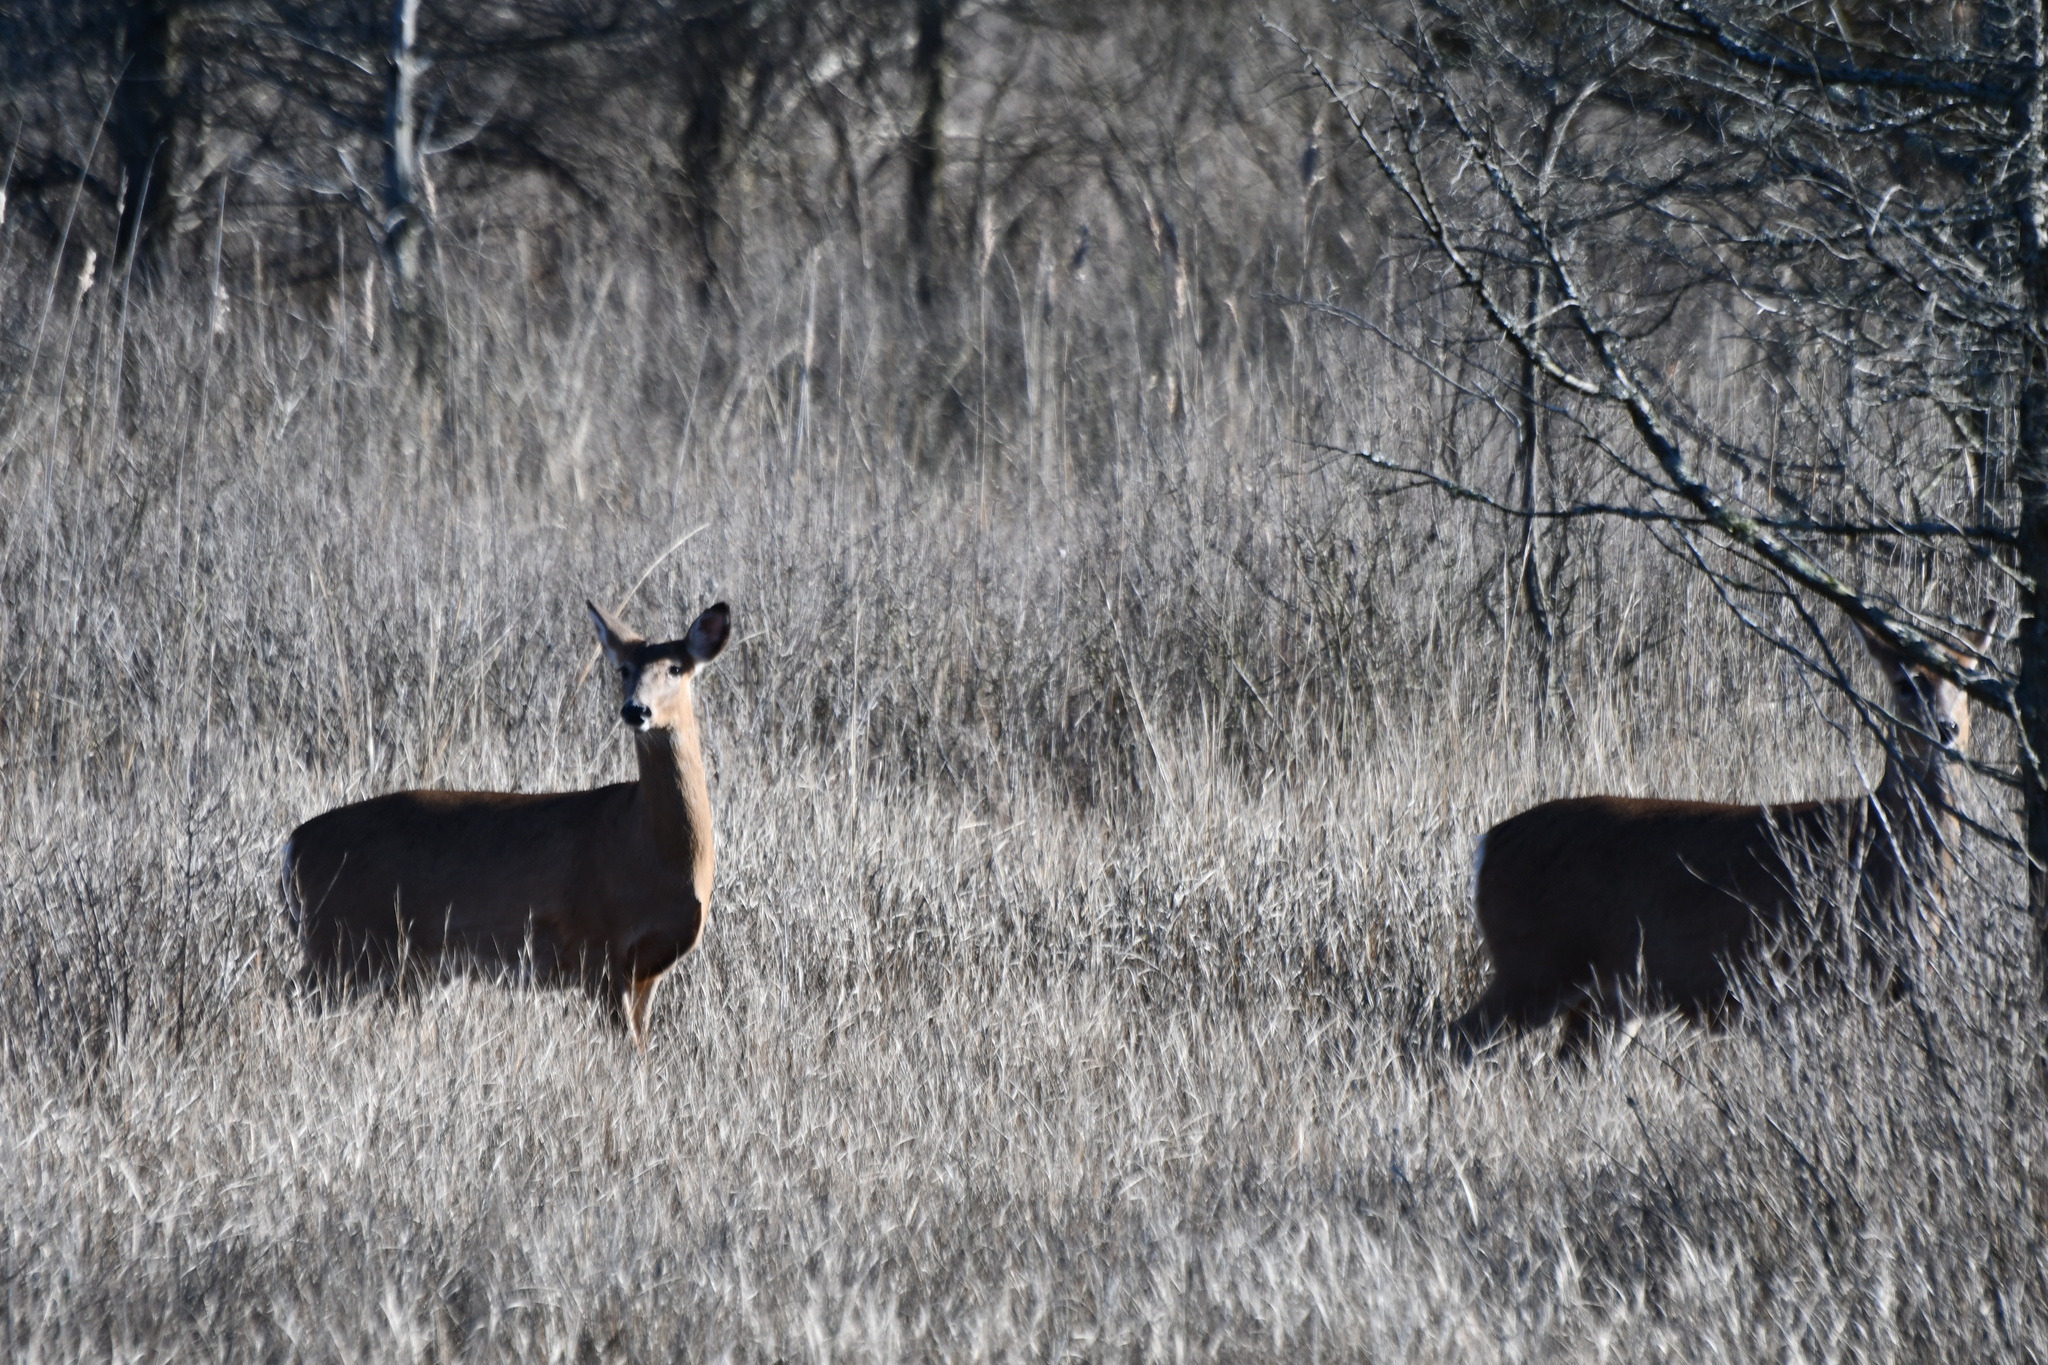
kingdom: Animalia
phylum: Chordata
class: Mammalia
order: Artiodactyla
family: Cervidae
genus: Odocoileus
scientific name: Odocoileus virginianus
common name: White-tailed deer
